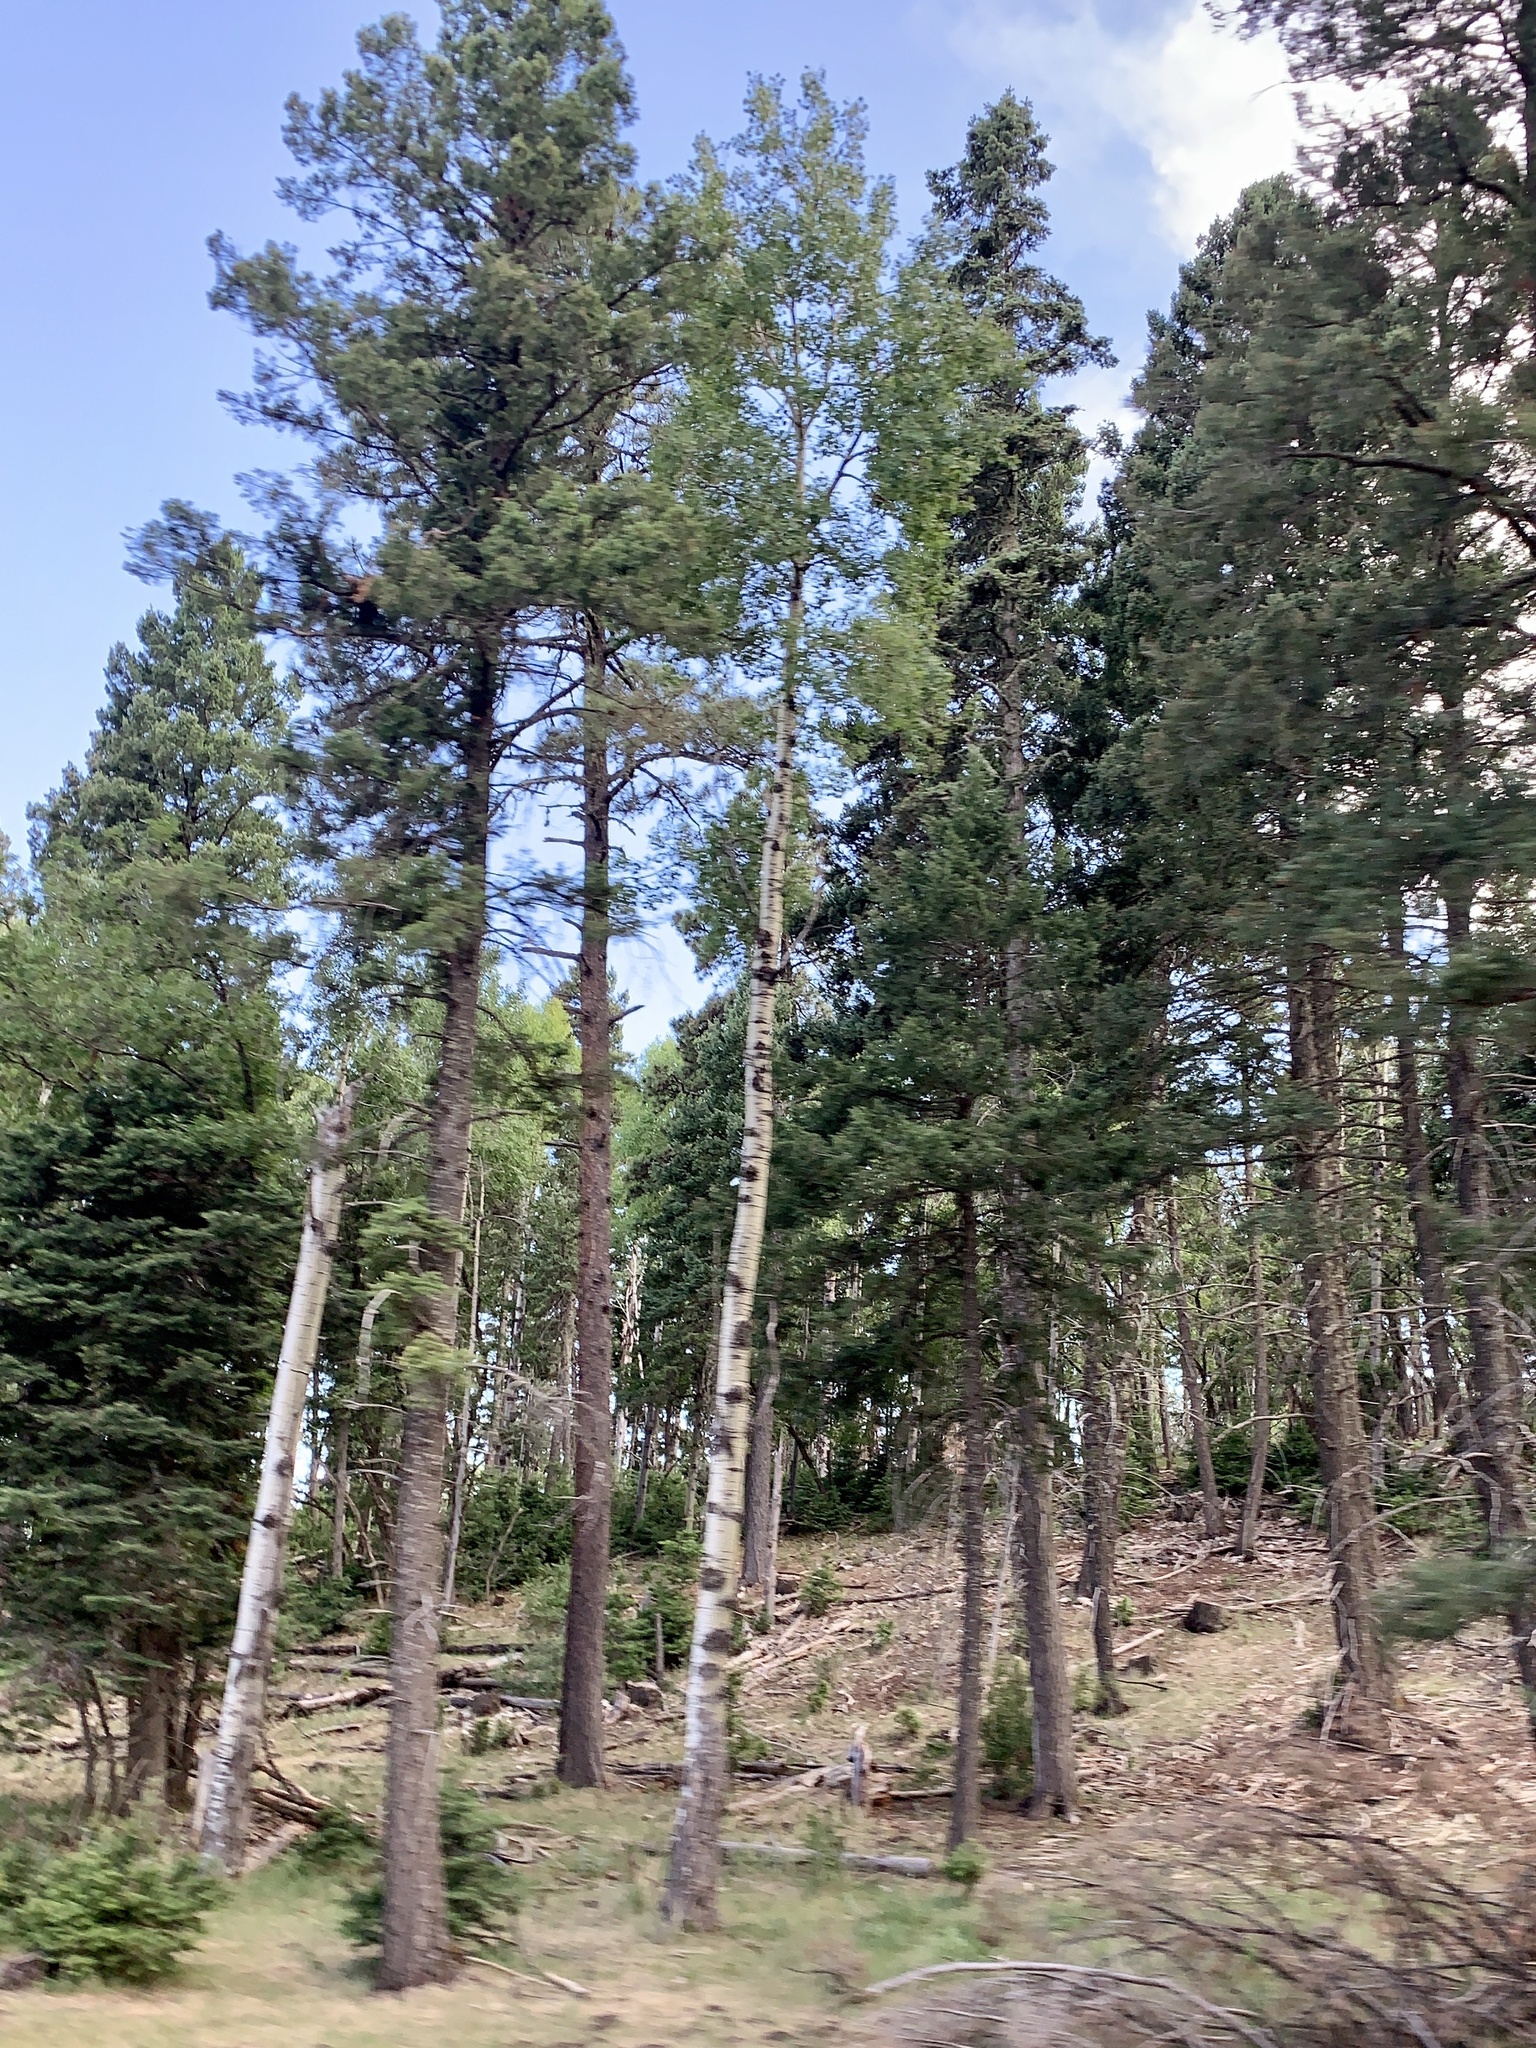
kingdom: Plantae
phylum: Tracheophyta
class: Magnoliopsida
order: Malpighiales
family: Salicaceae
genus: Populus
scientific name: Populus tremuloides
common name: Quaking aspen
